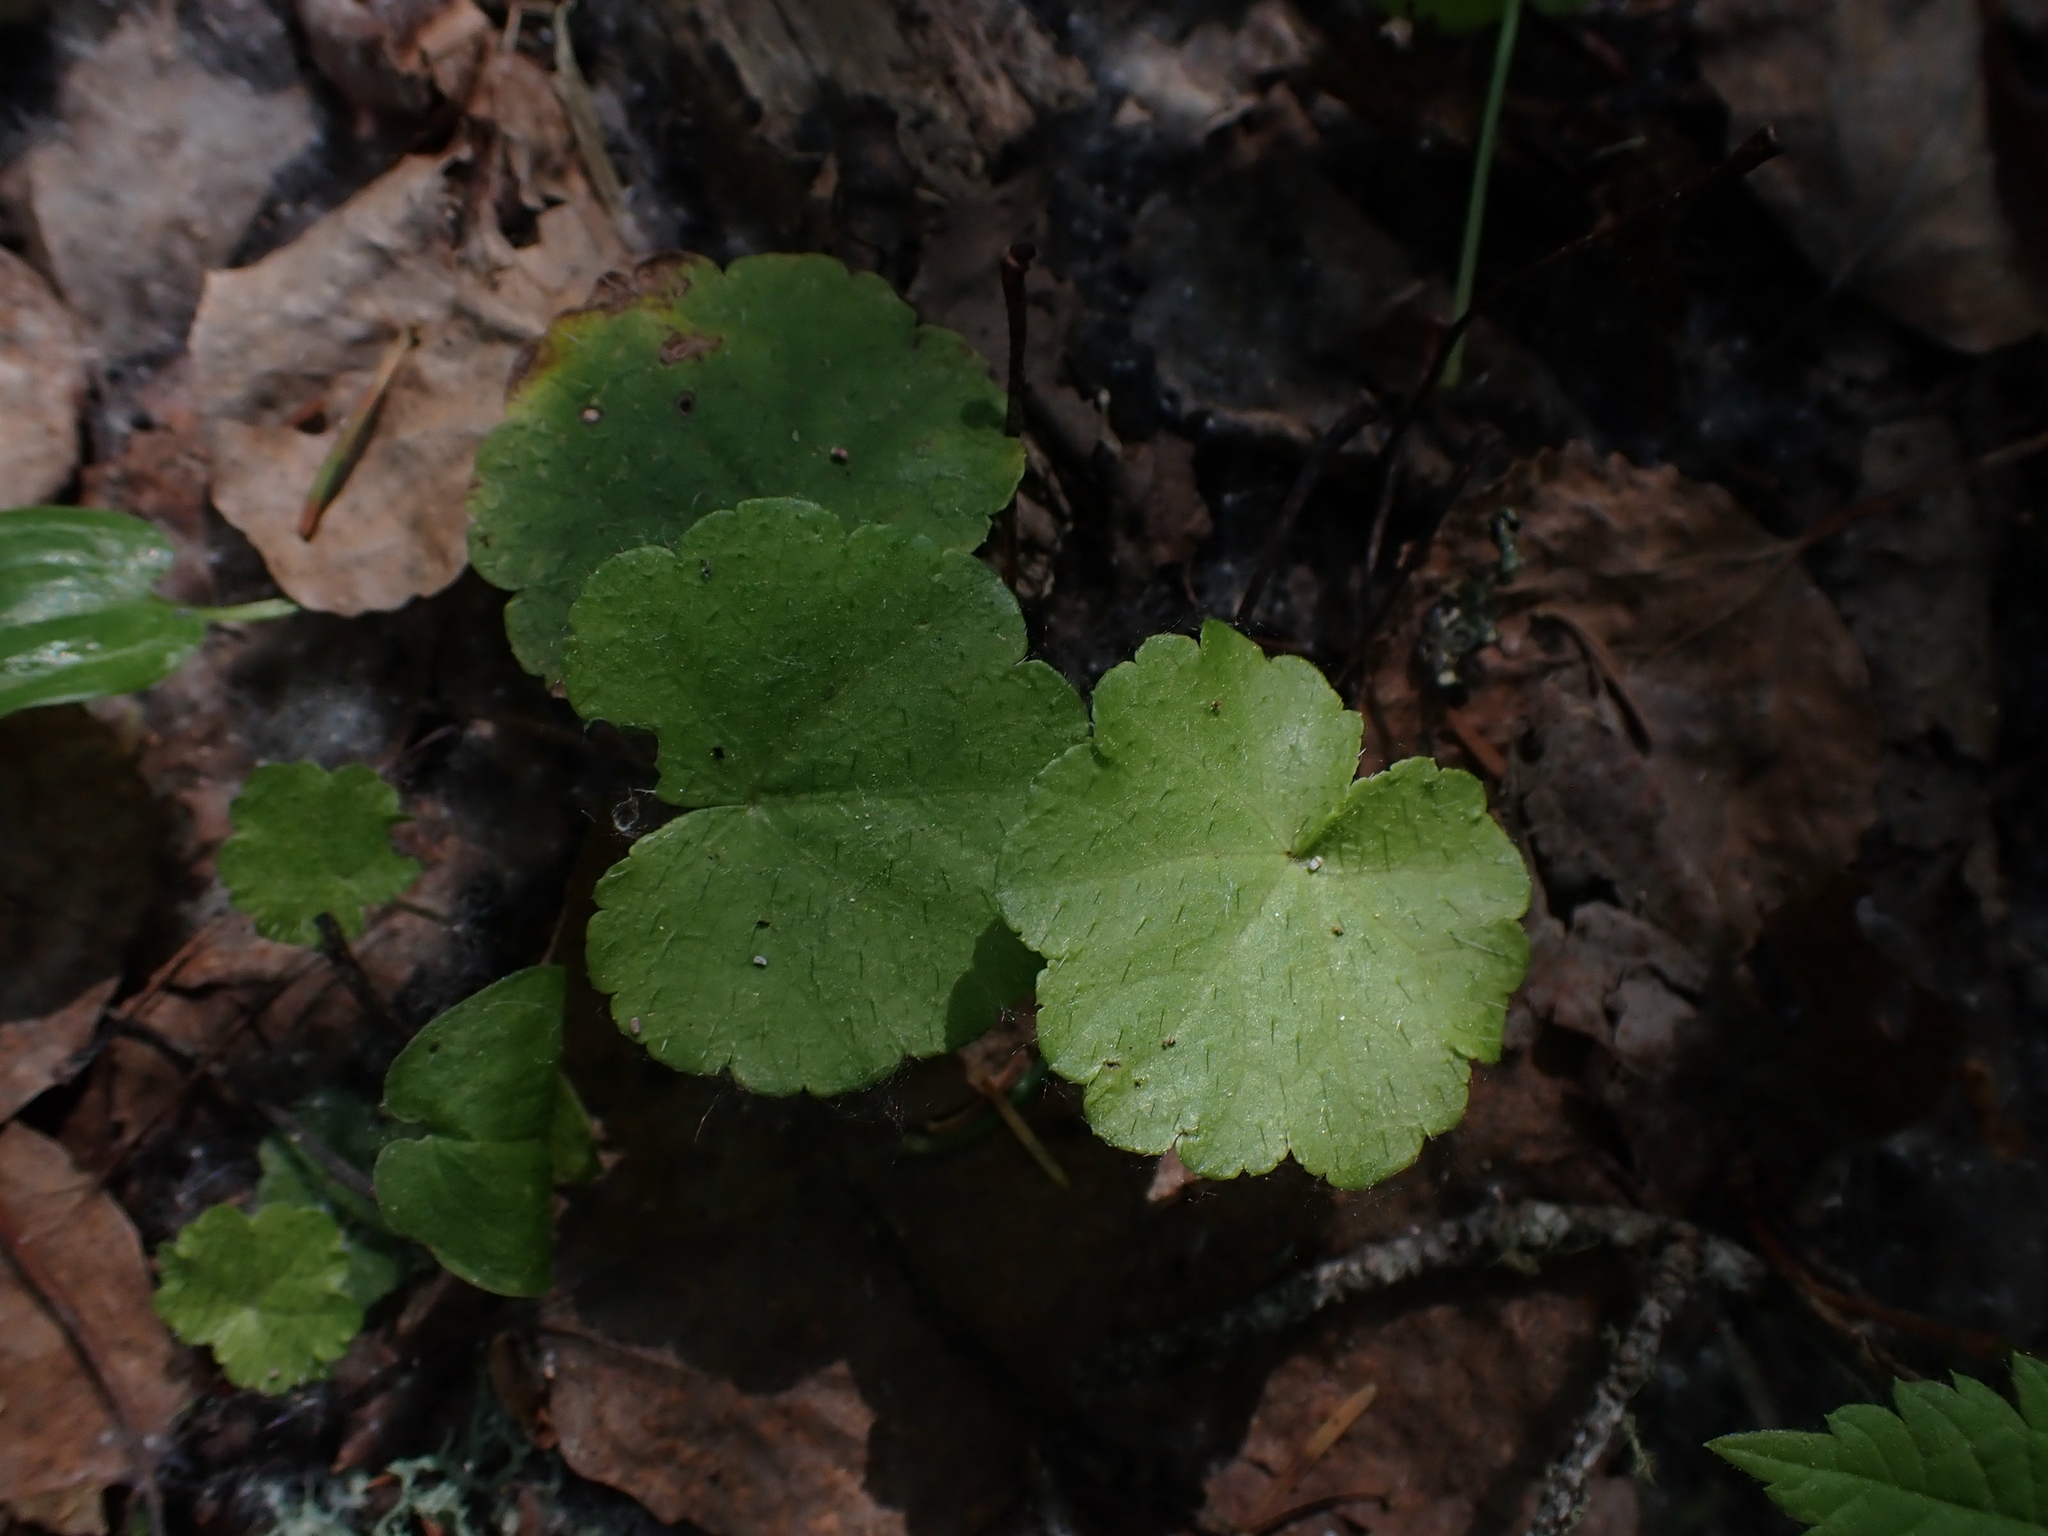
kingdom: Plantae
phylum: Tracheophyta
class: Magnoliopsida
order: Saxifragales
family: Saxifragaceae
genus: Mitella
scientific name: Mitella nuda
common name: Bare-stemmed bishop's-cap
